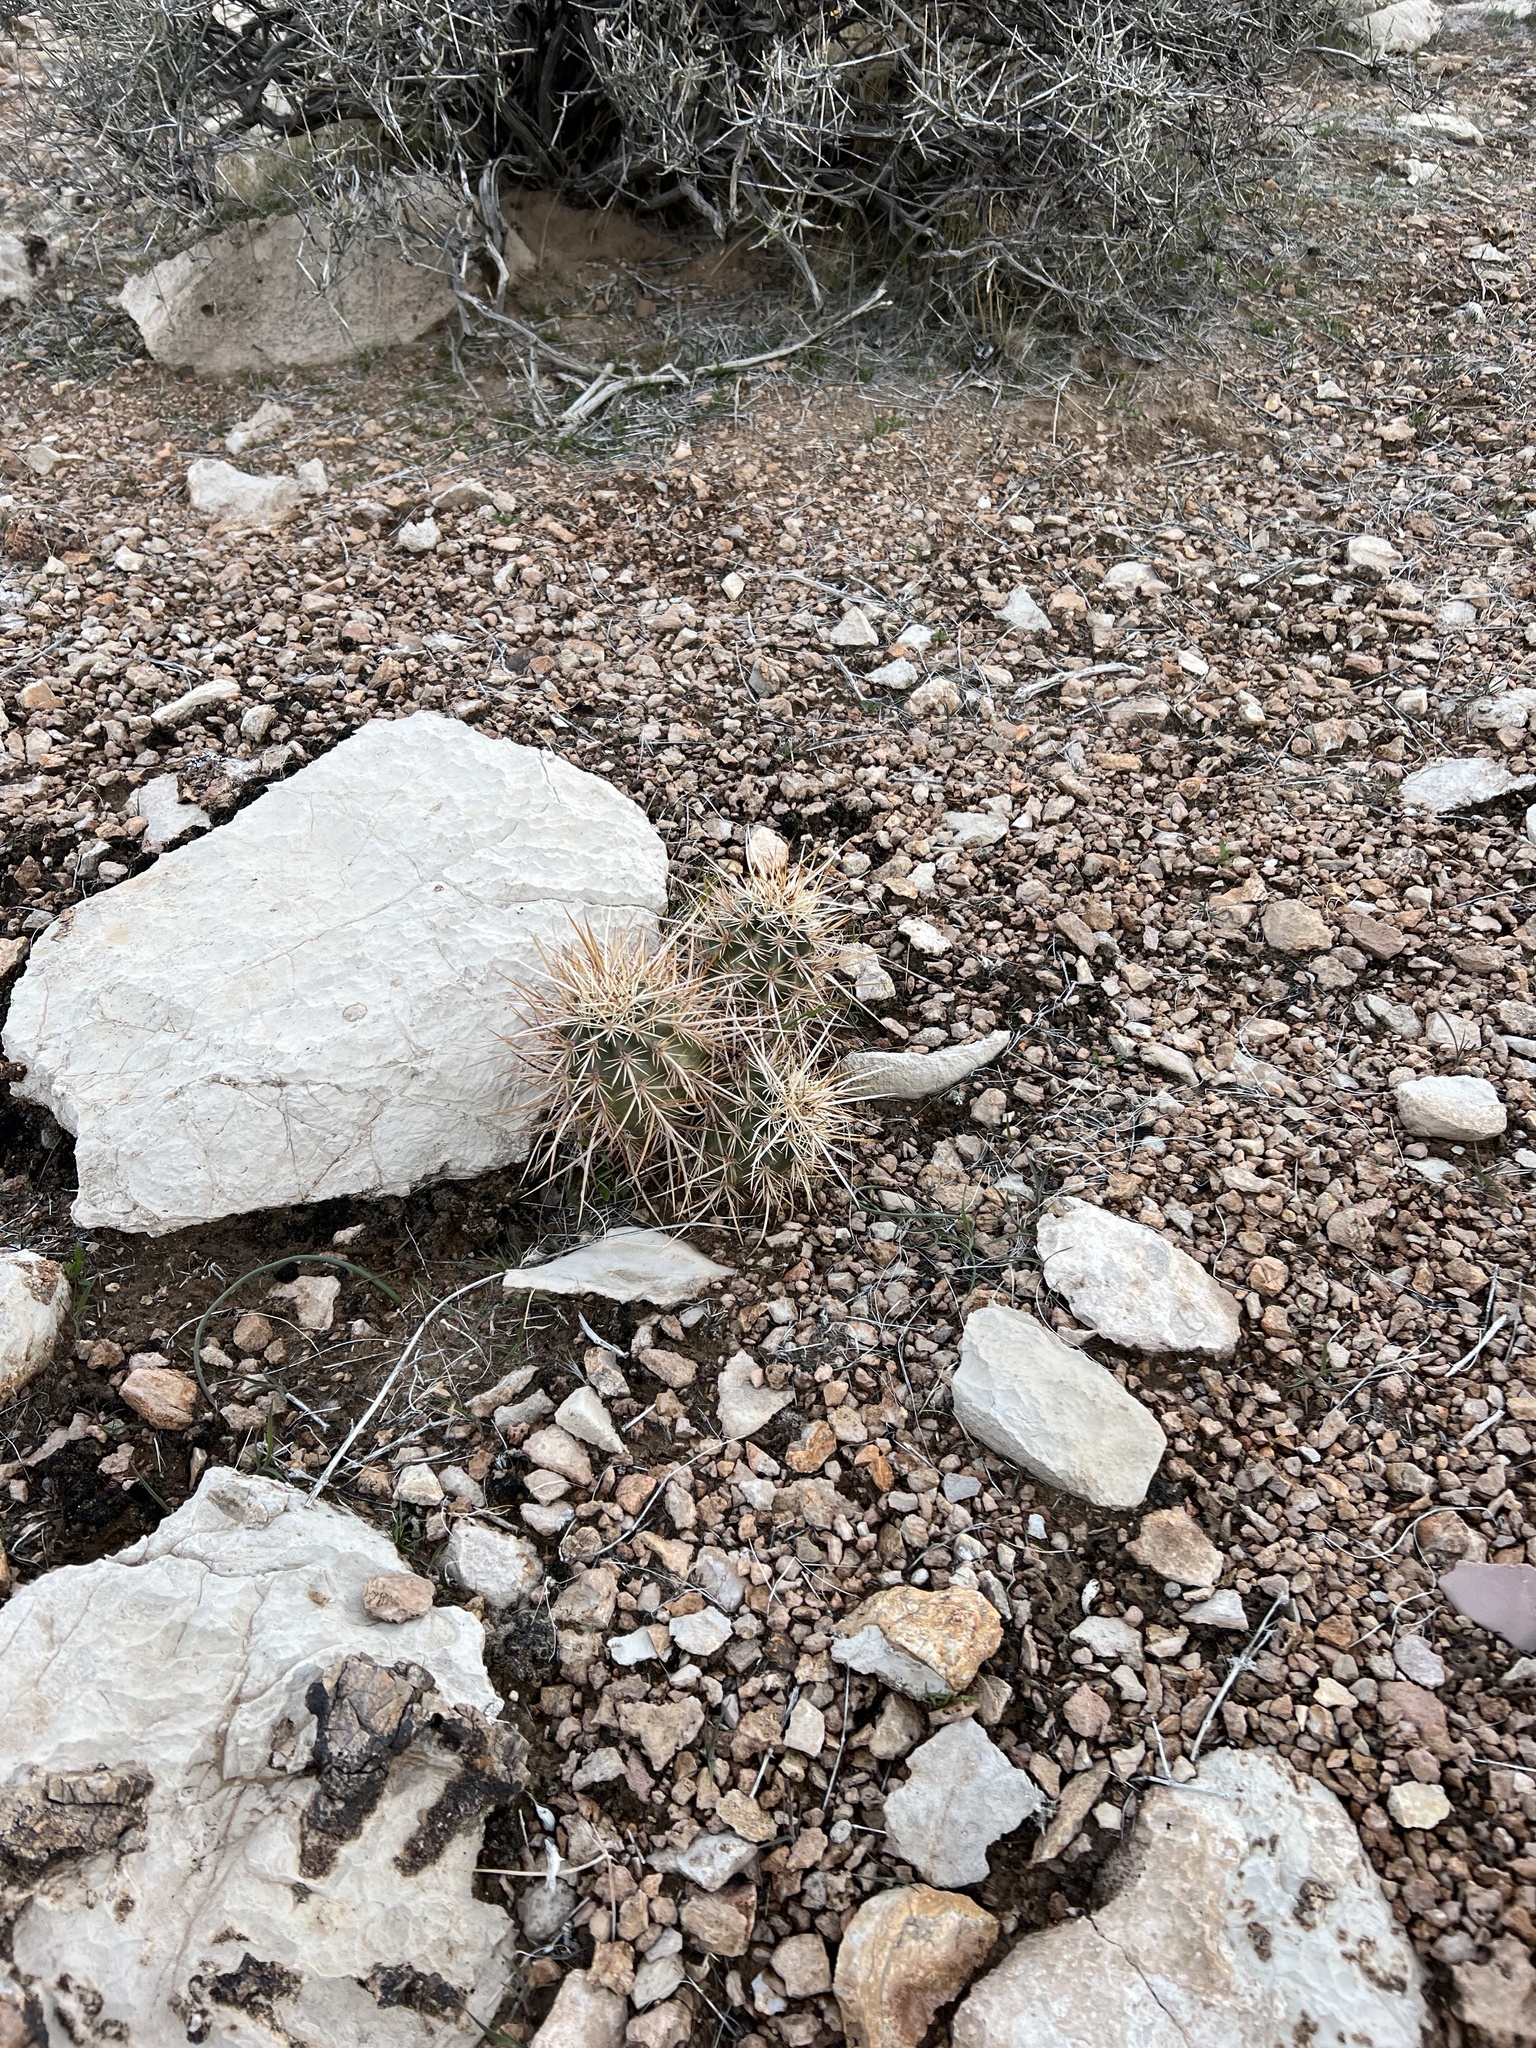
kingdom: Plantae
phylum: Tracheophyta
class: Magnoliopsida
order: Caryophyllales
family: Cactaceae
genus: Echinocereus
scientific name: Echinocereus engelmannii
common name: Engelmann's hedgehog cactus
